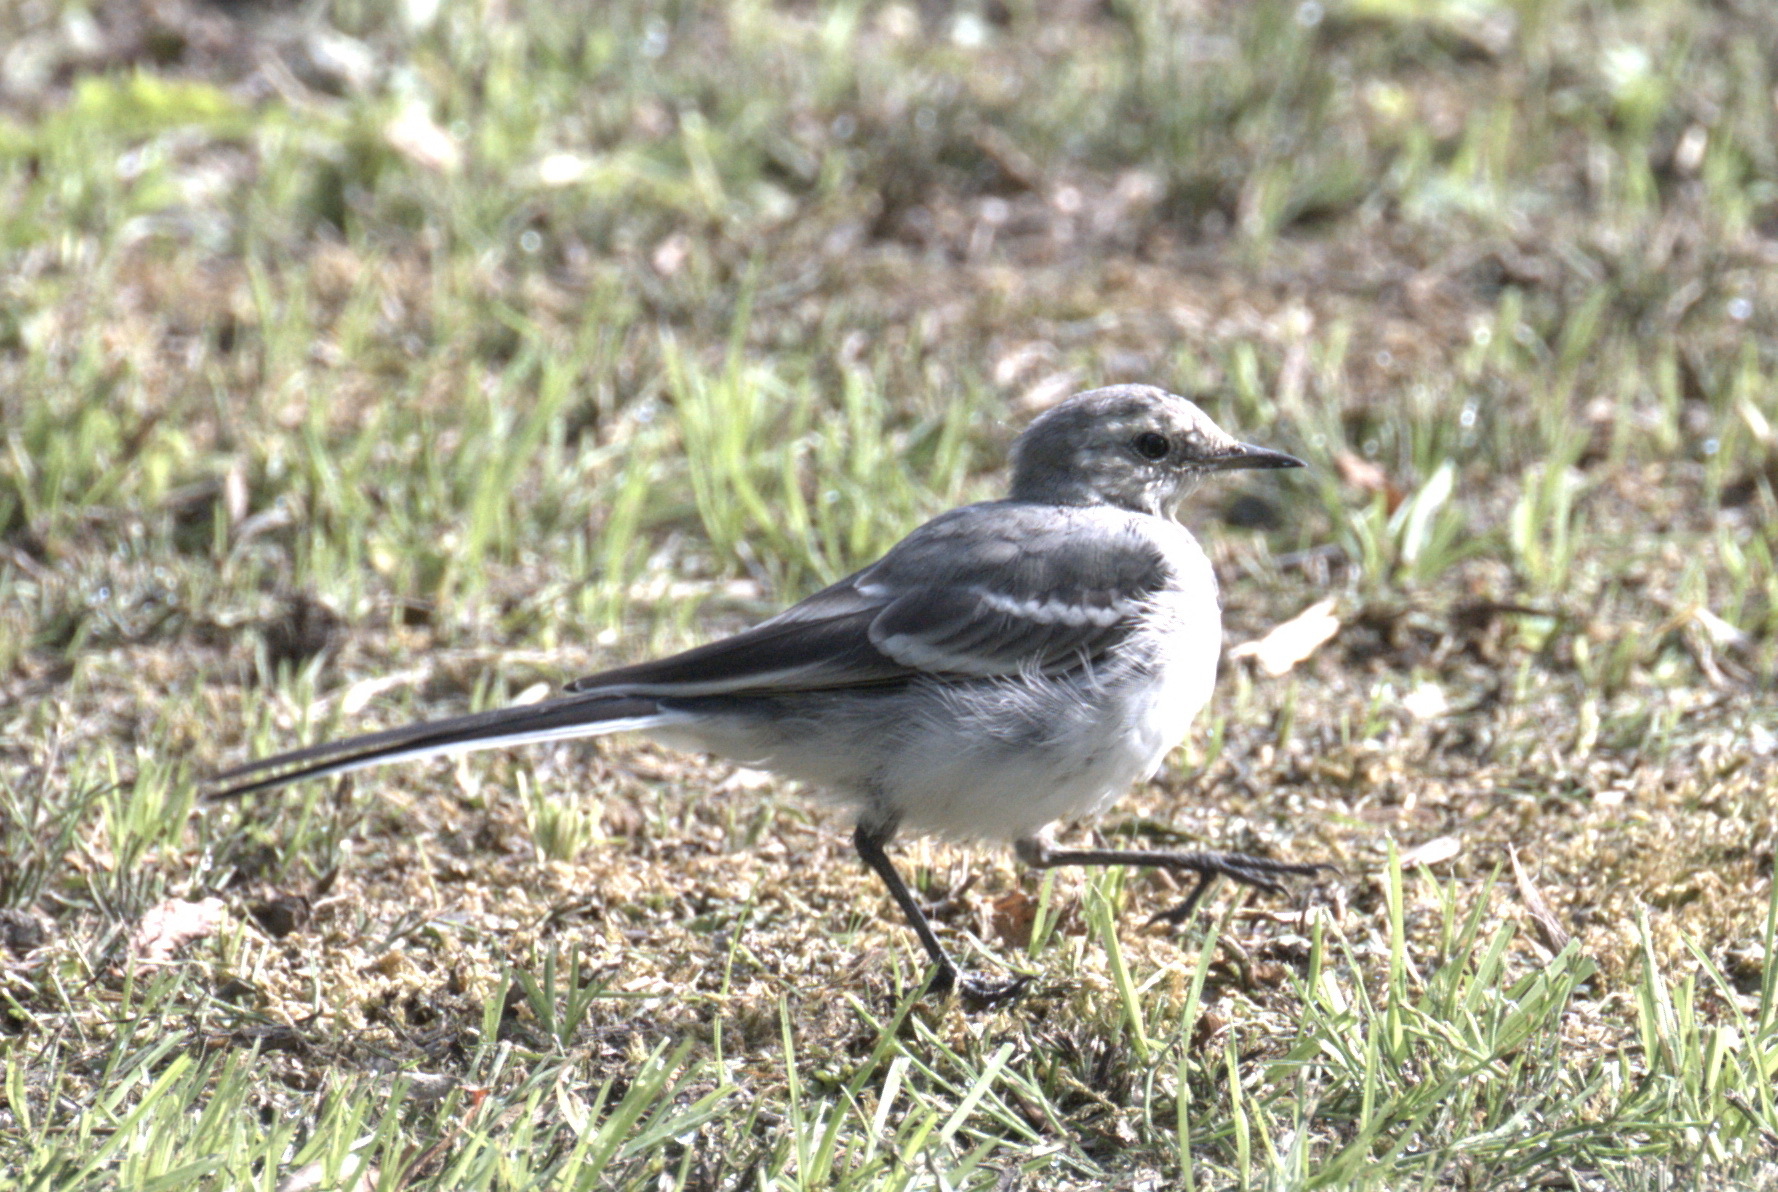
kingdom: Animalia
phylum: Chordata
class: Aves
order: Passeriformes
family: Motacillidae
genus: Motacilla
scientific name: Motacilla alba
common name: White wagtail
